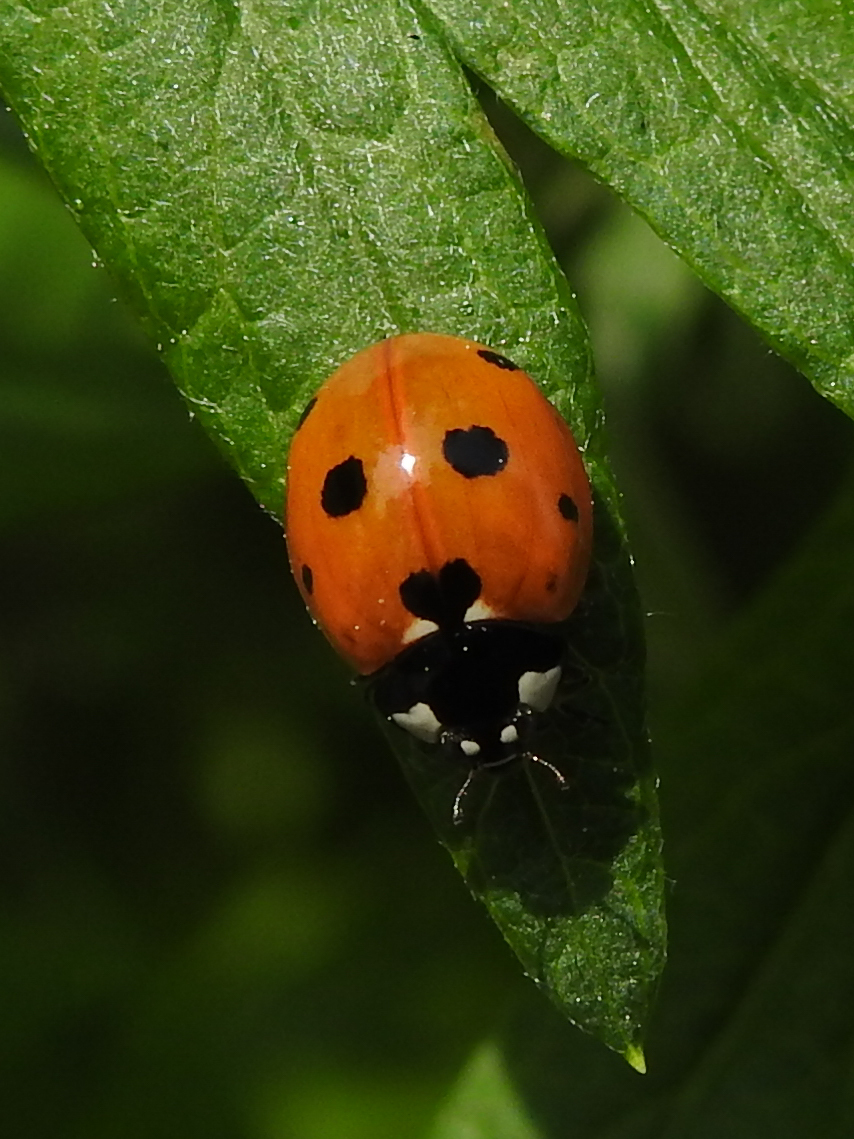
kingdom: Animalia
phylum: Arthropoda
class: Insecta
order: Coleoptera
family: Coccinellidae
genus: Coccinella
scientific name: Coccinella septempunctata
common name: Sevenspotted lady beetle
